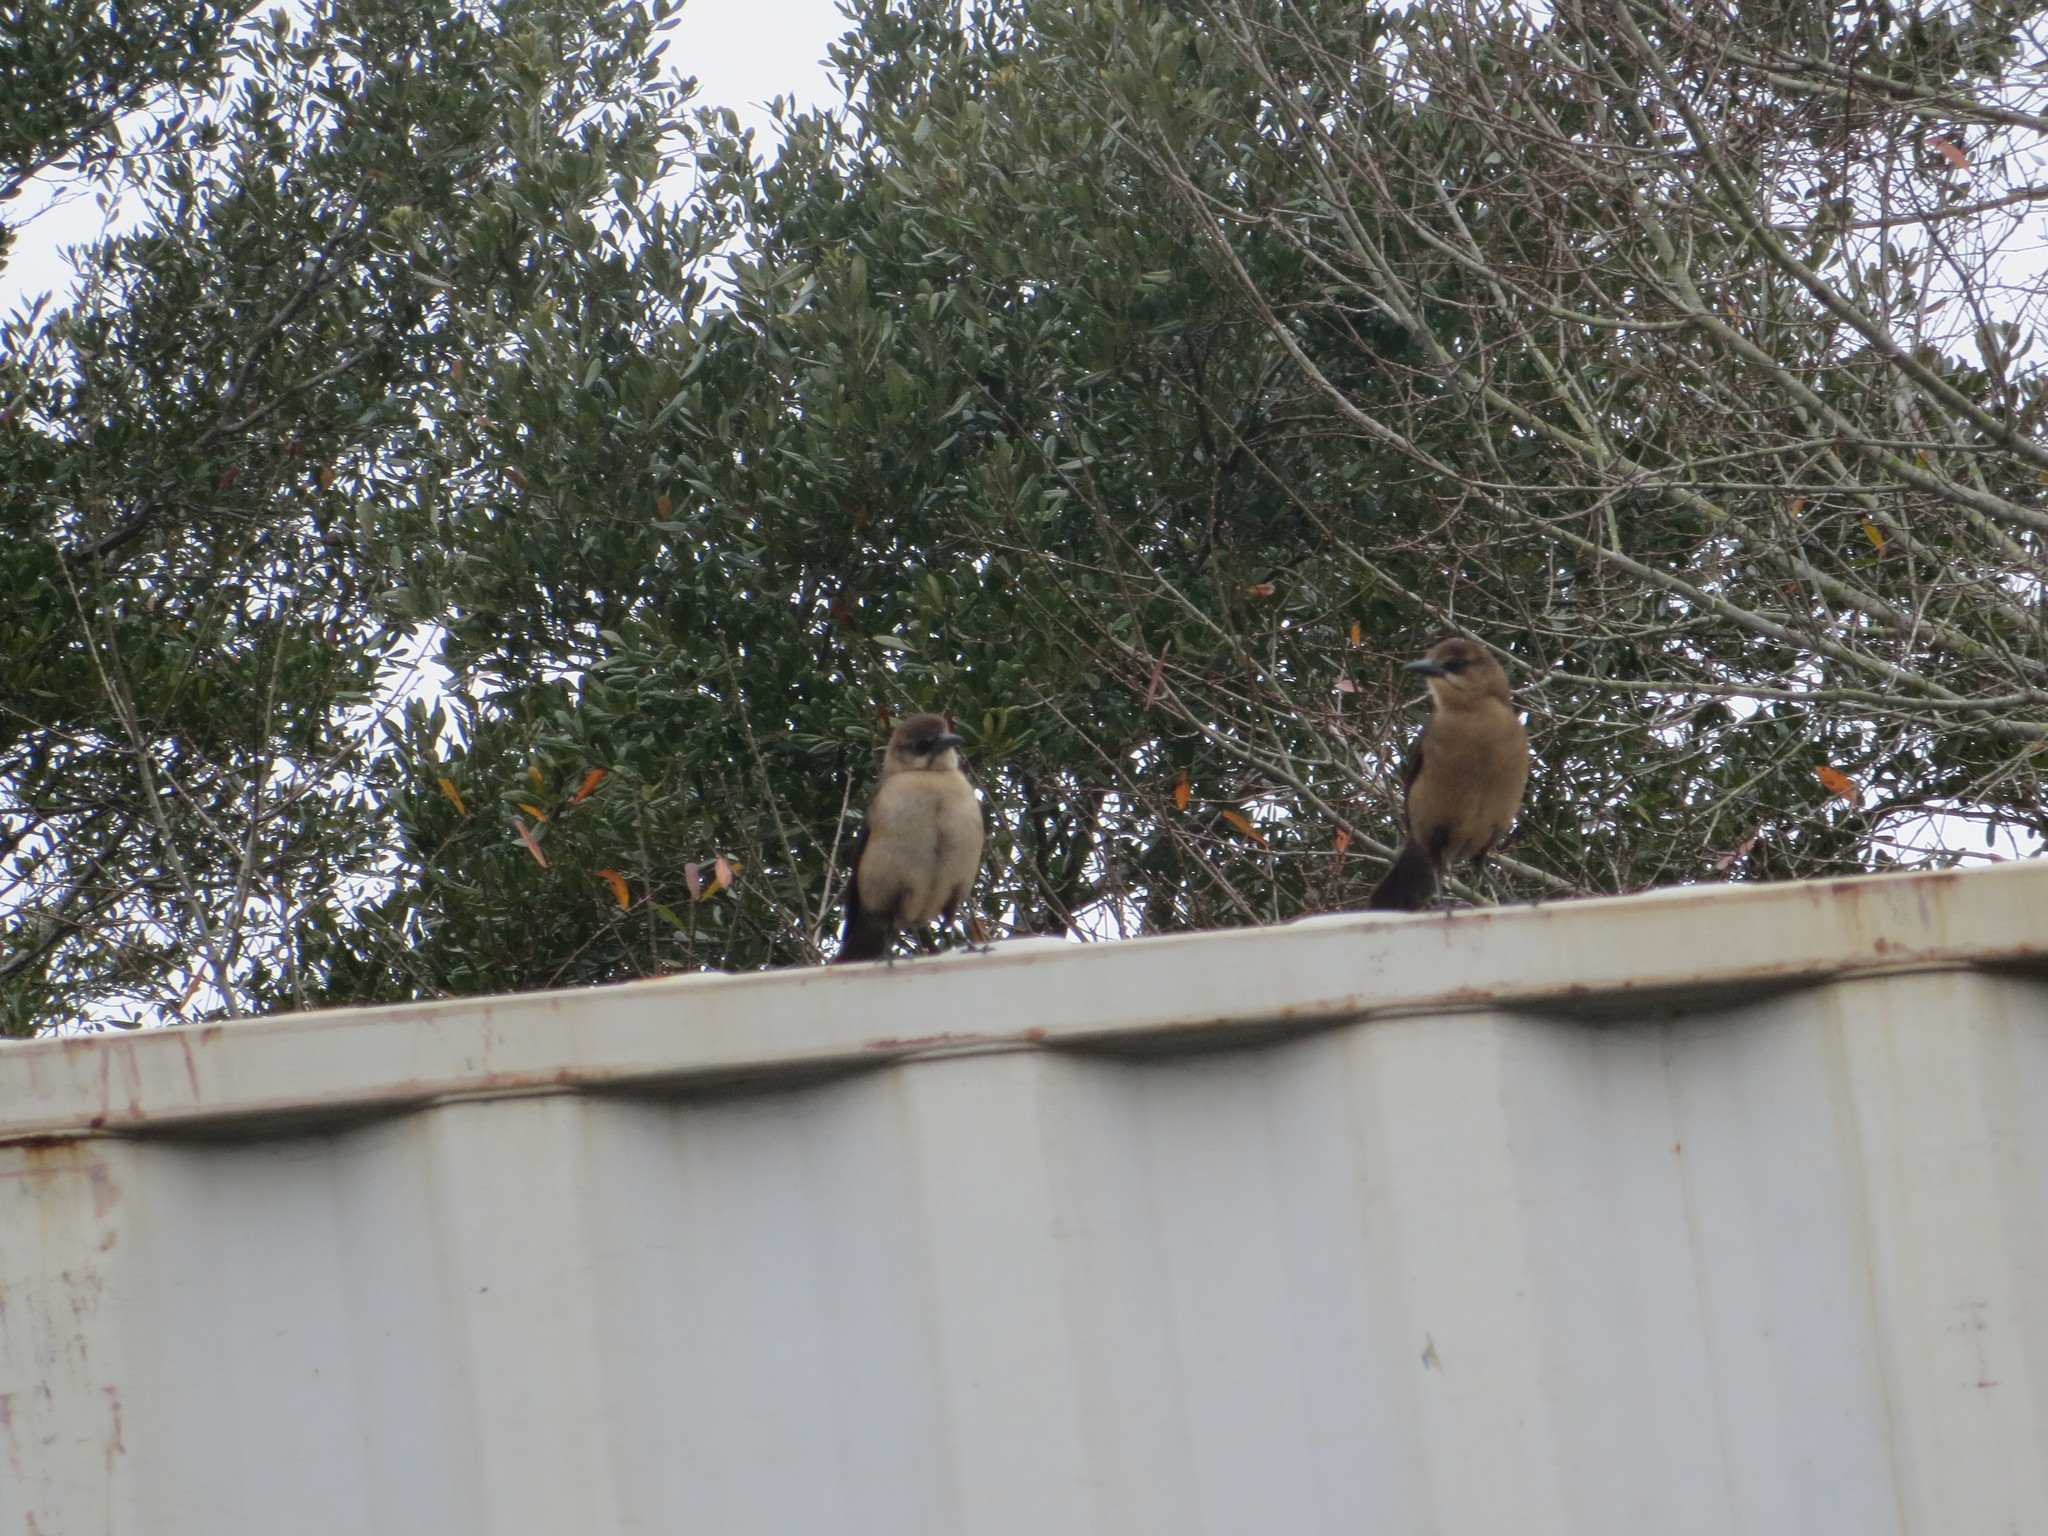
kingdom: Animalia
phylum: Chordata
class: Aves
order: Passeriformes
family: Icteridae
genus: Quiscalus
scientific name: Quiscalus major
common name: Boat-tailed grackle
